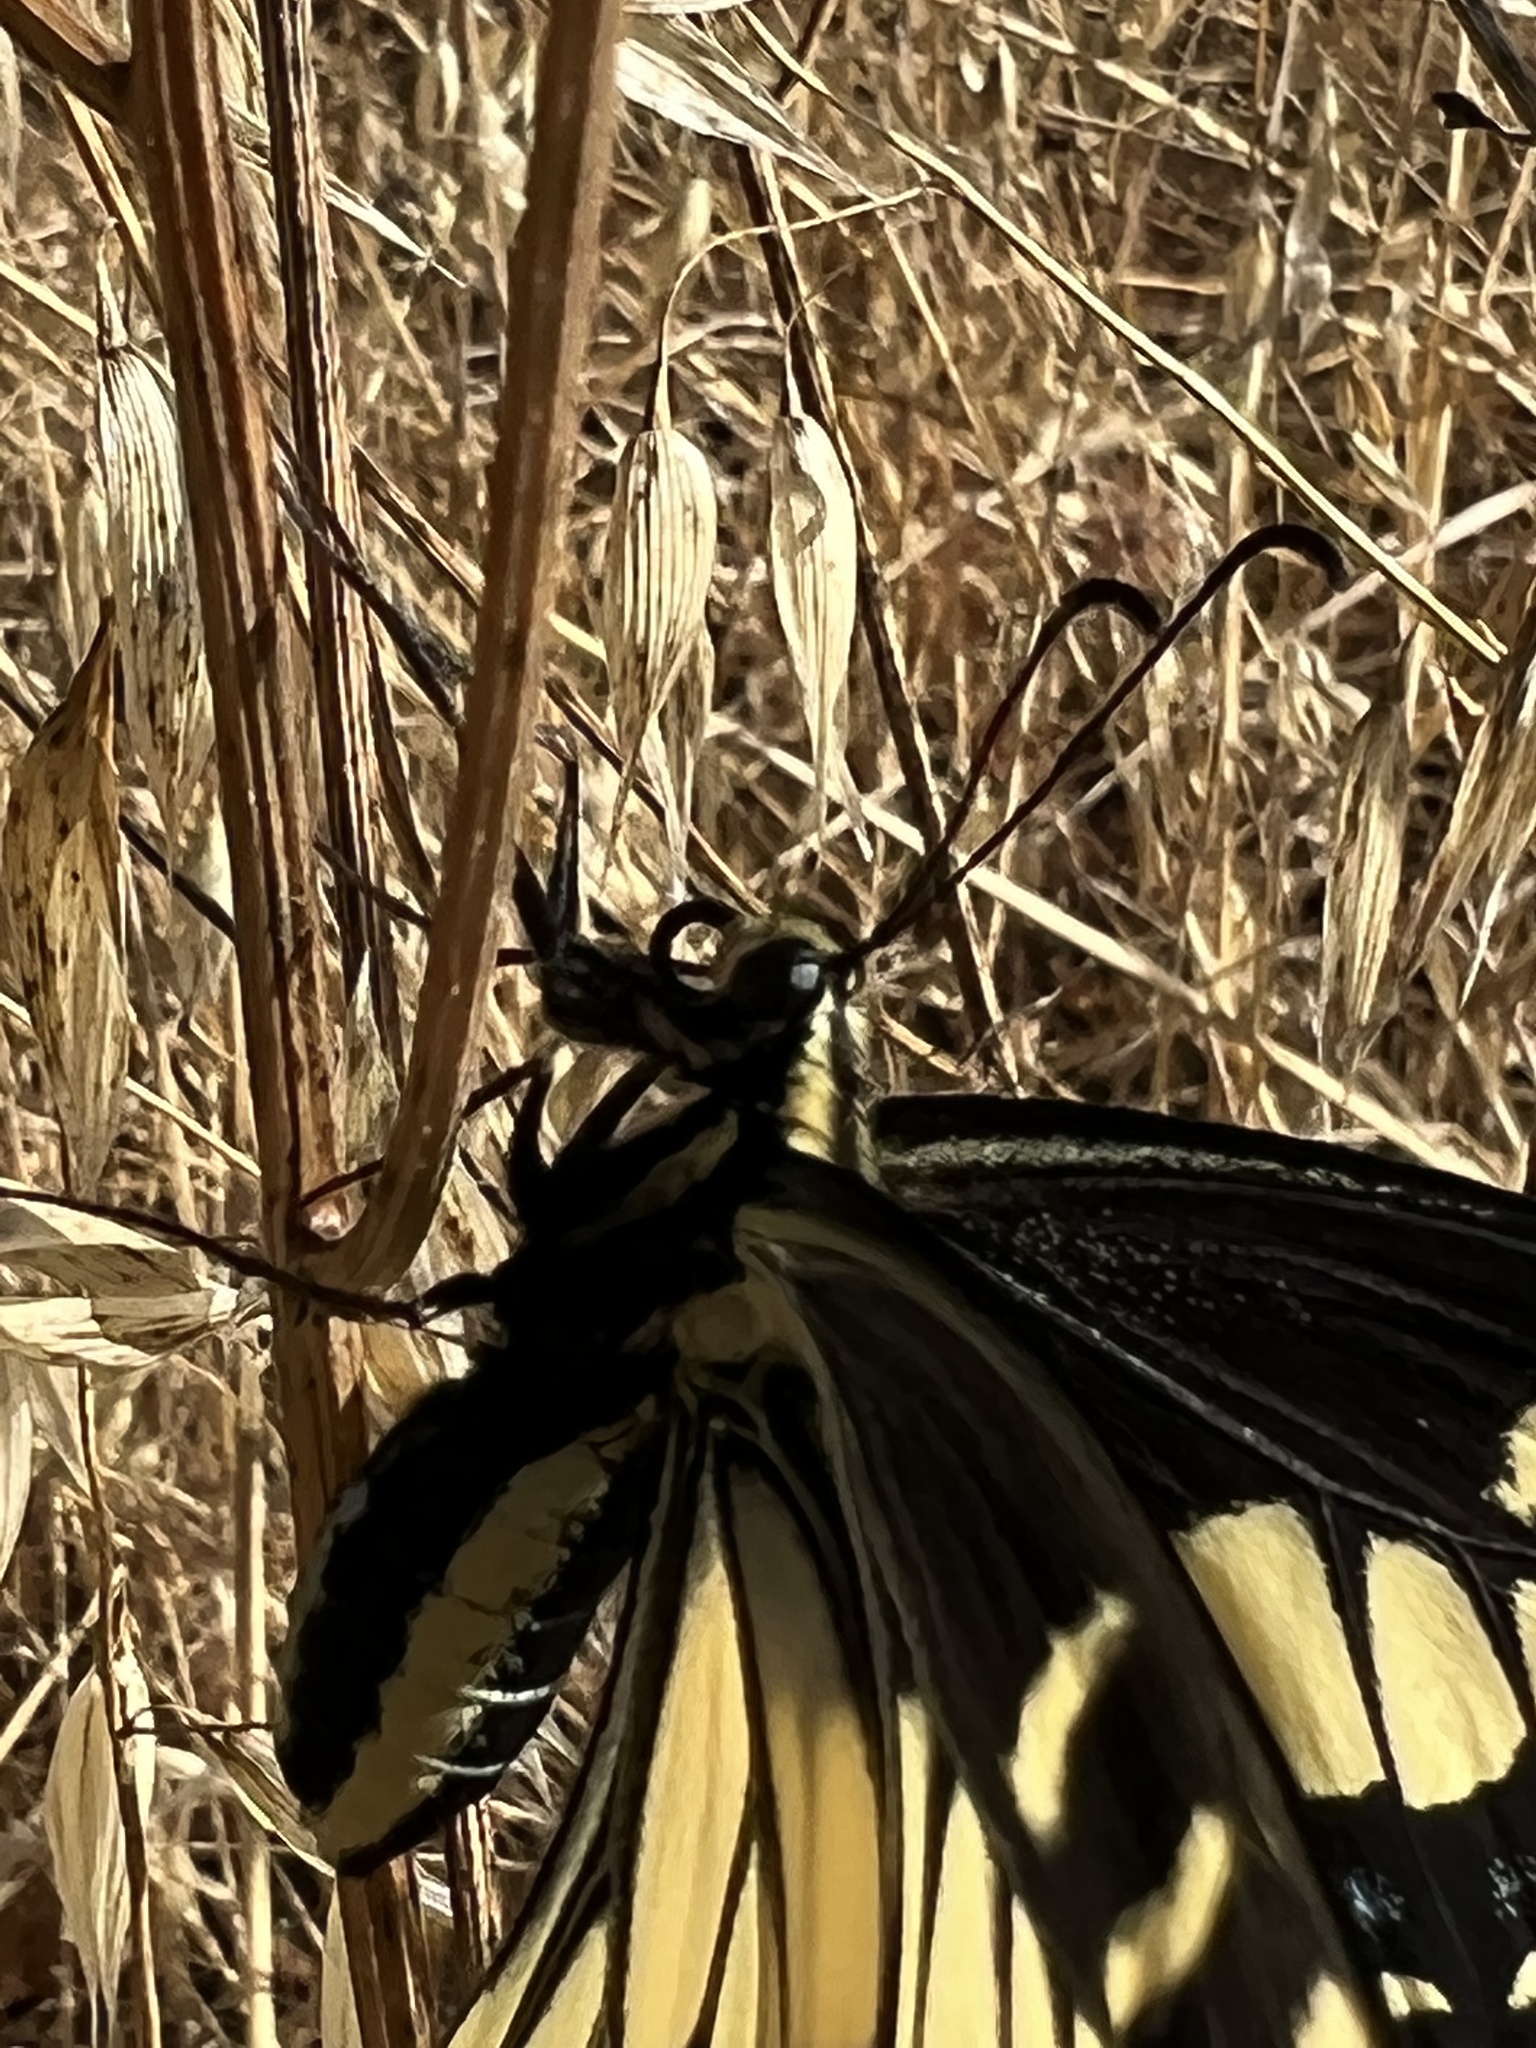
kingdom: Animalia
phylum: Arthropoda
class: Insecta
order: Lepidoptera
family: Papilionidae
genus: Papilio
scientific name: Papilio zelicaon
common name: Anise swallowtail
